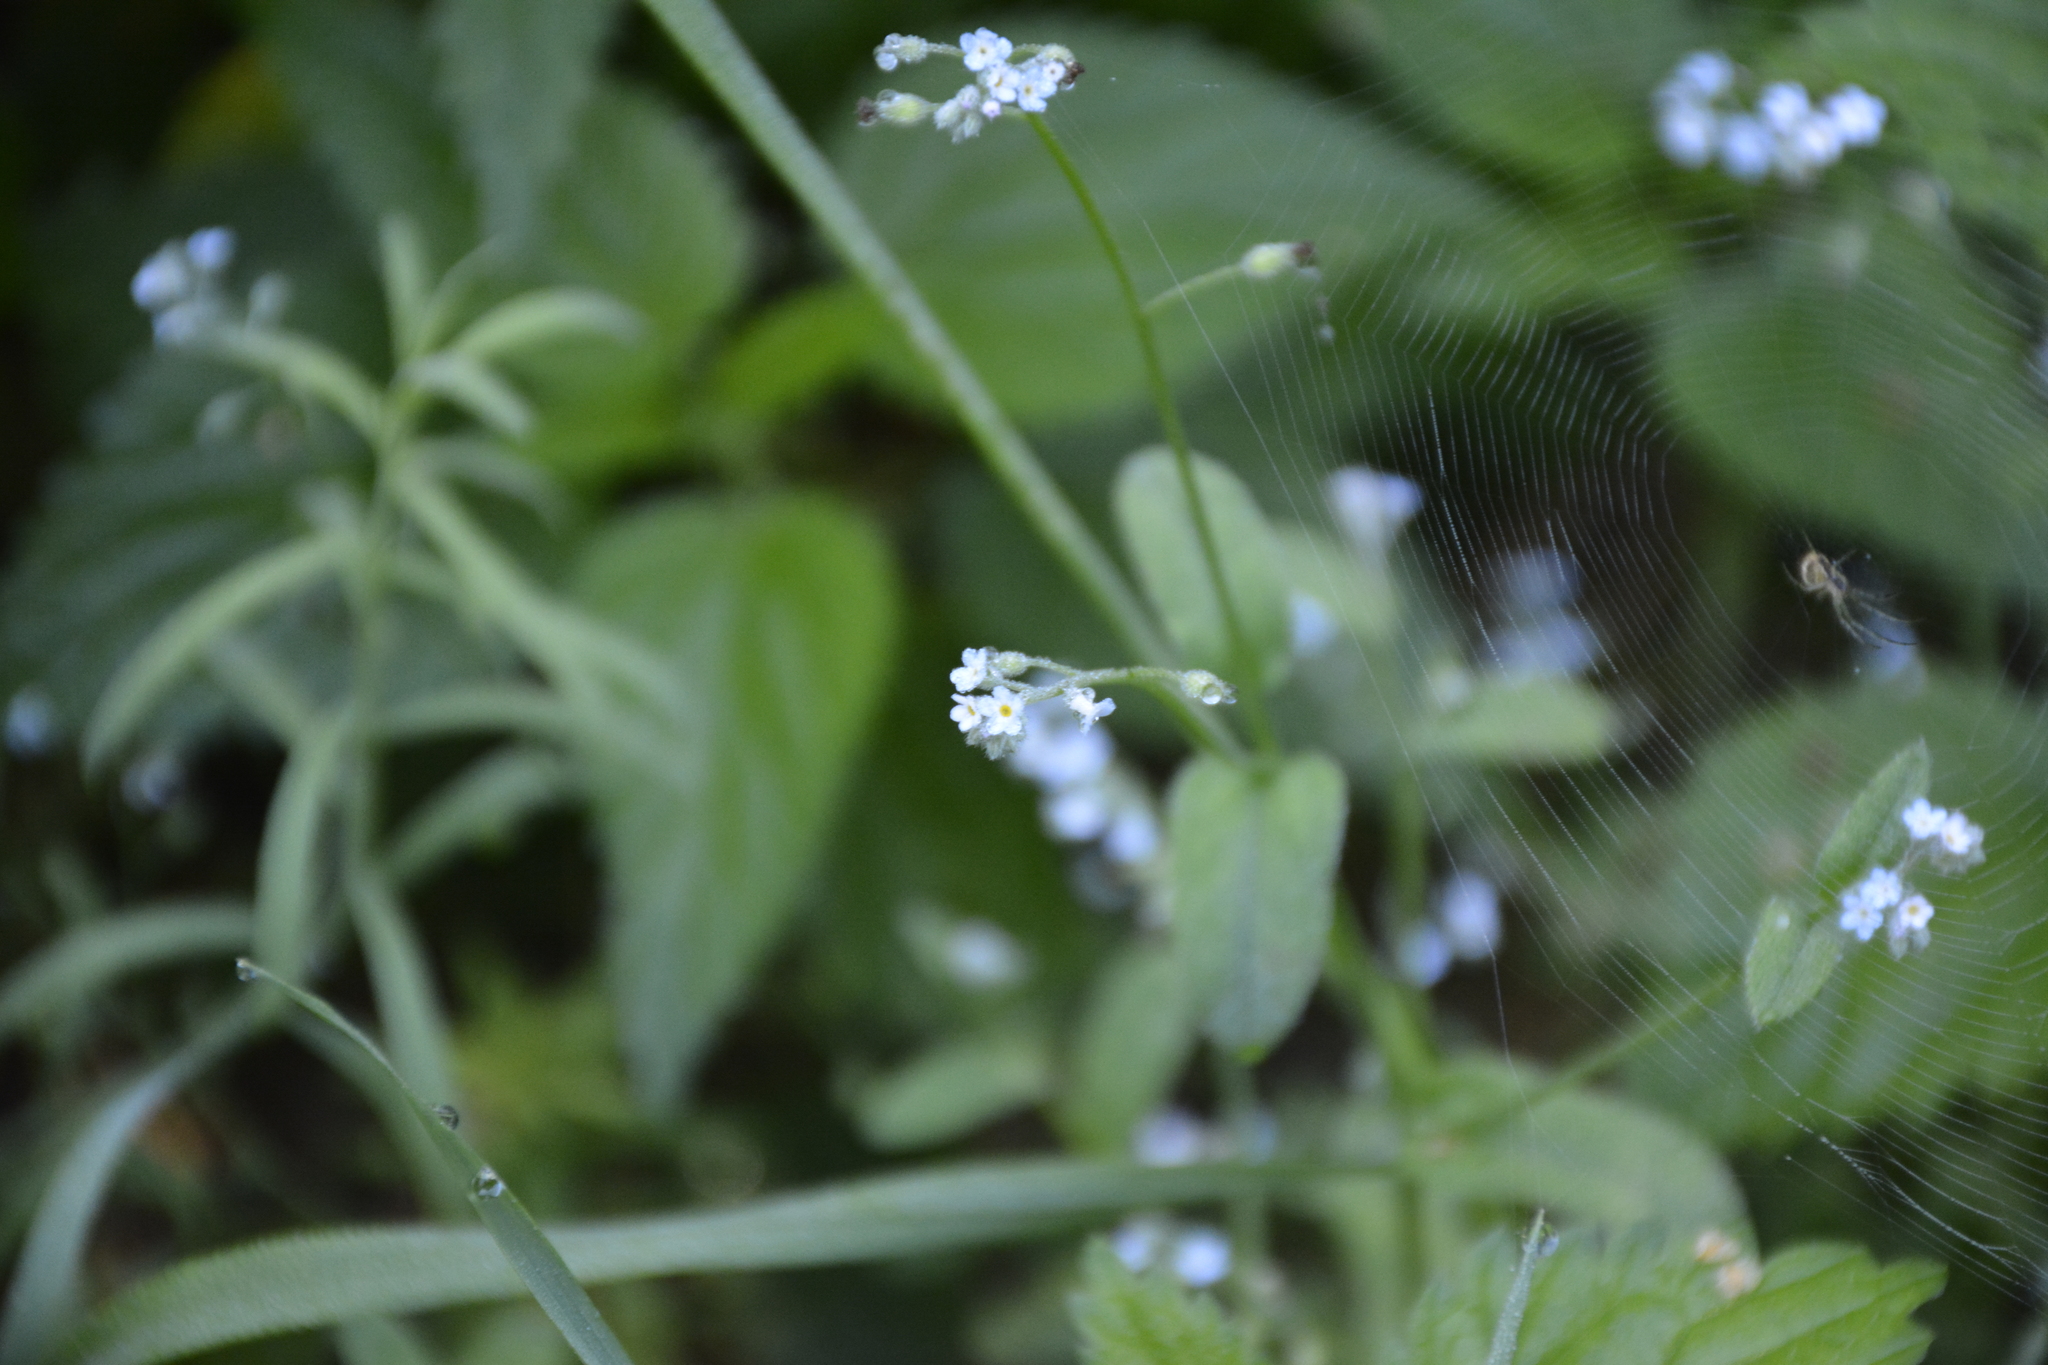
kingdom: Plantae
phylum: Tracheophyta
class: Magnoliopsida
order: Boraginales
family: Boraginaceae
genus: Myosotis
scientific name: Myosotis arvensis
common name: Field forget-me-not
